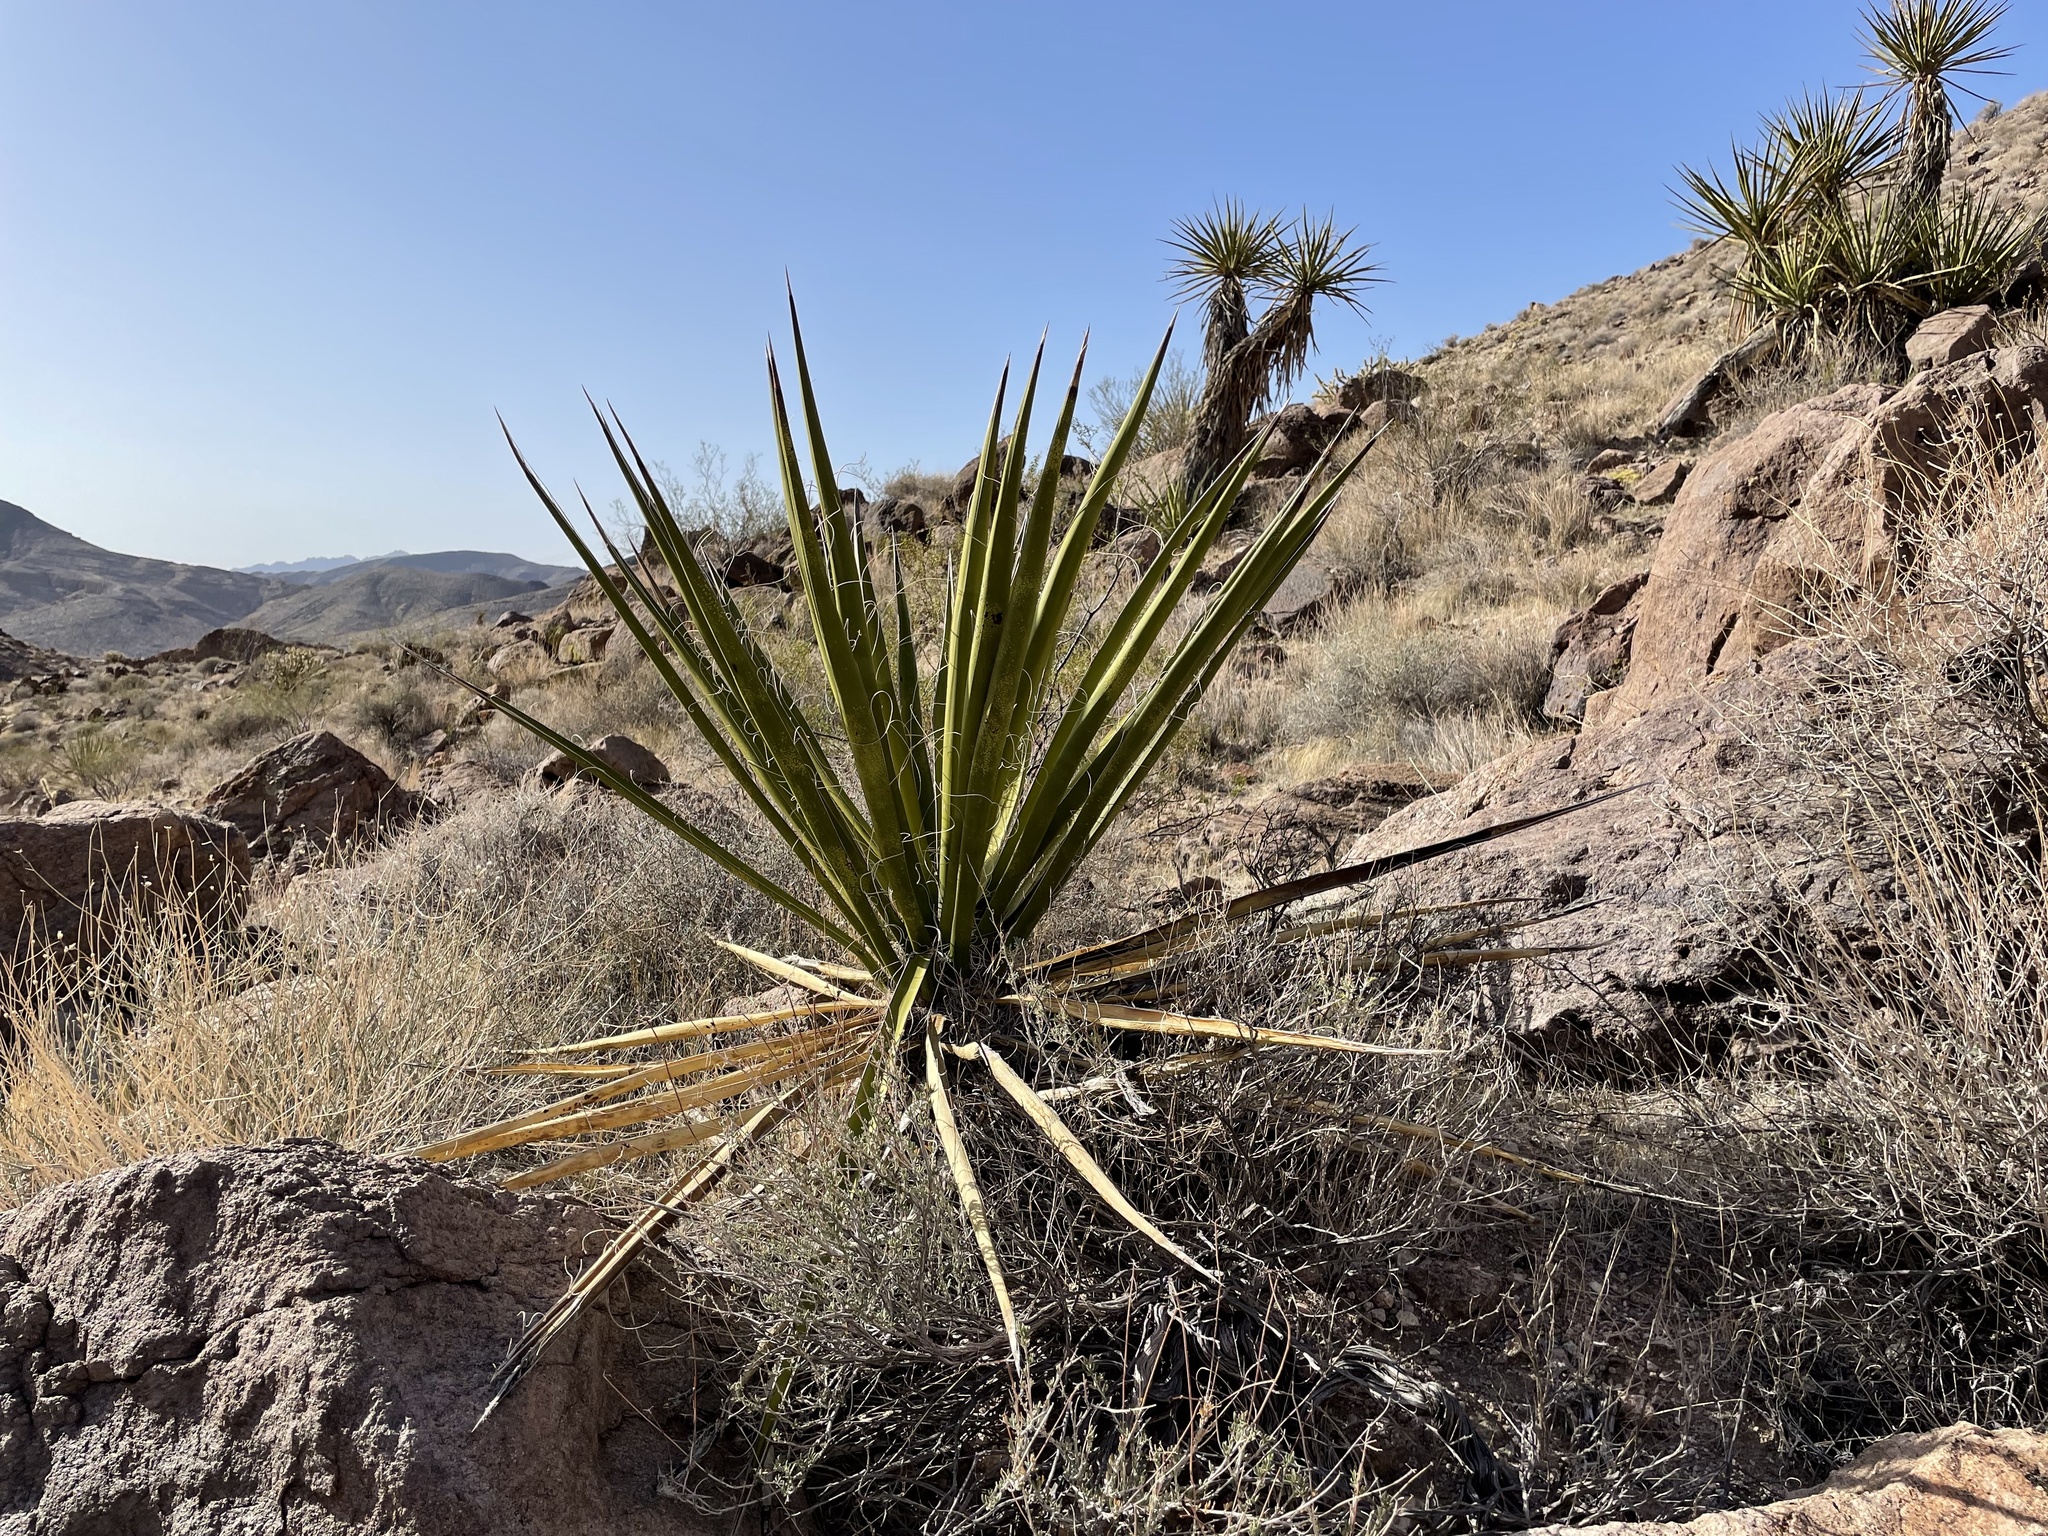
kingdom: Plantae
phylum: Tracheophyta
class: Liliopsida
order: Asparagales
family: Asparagaceae
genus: Yucca
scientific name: Yucca schidigera
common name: Mojave yucca
